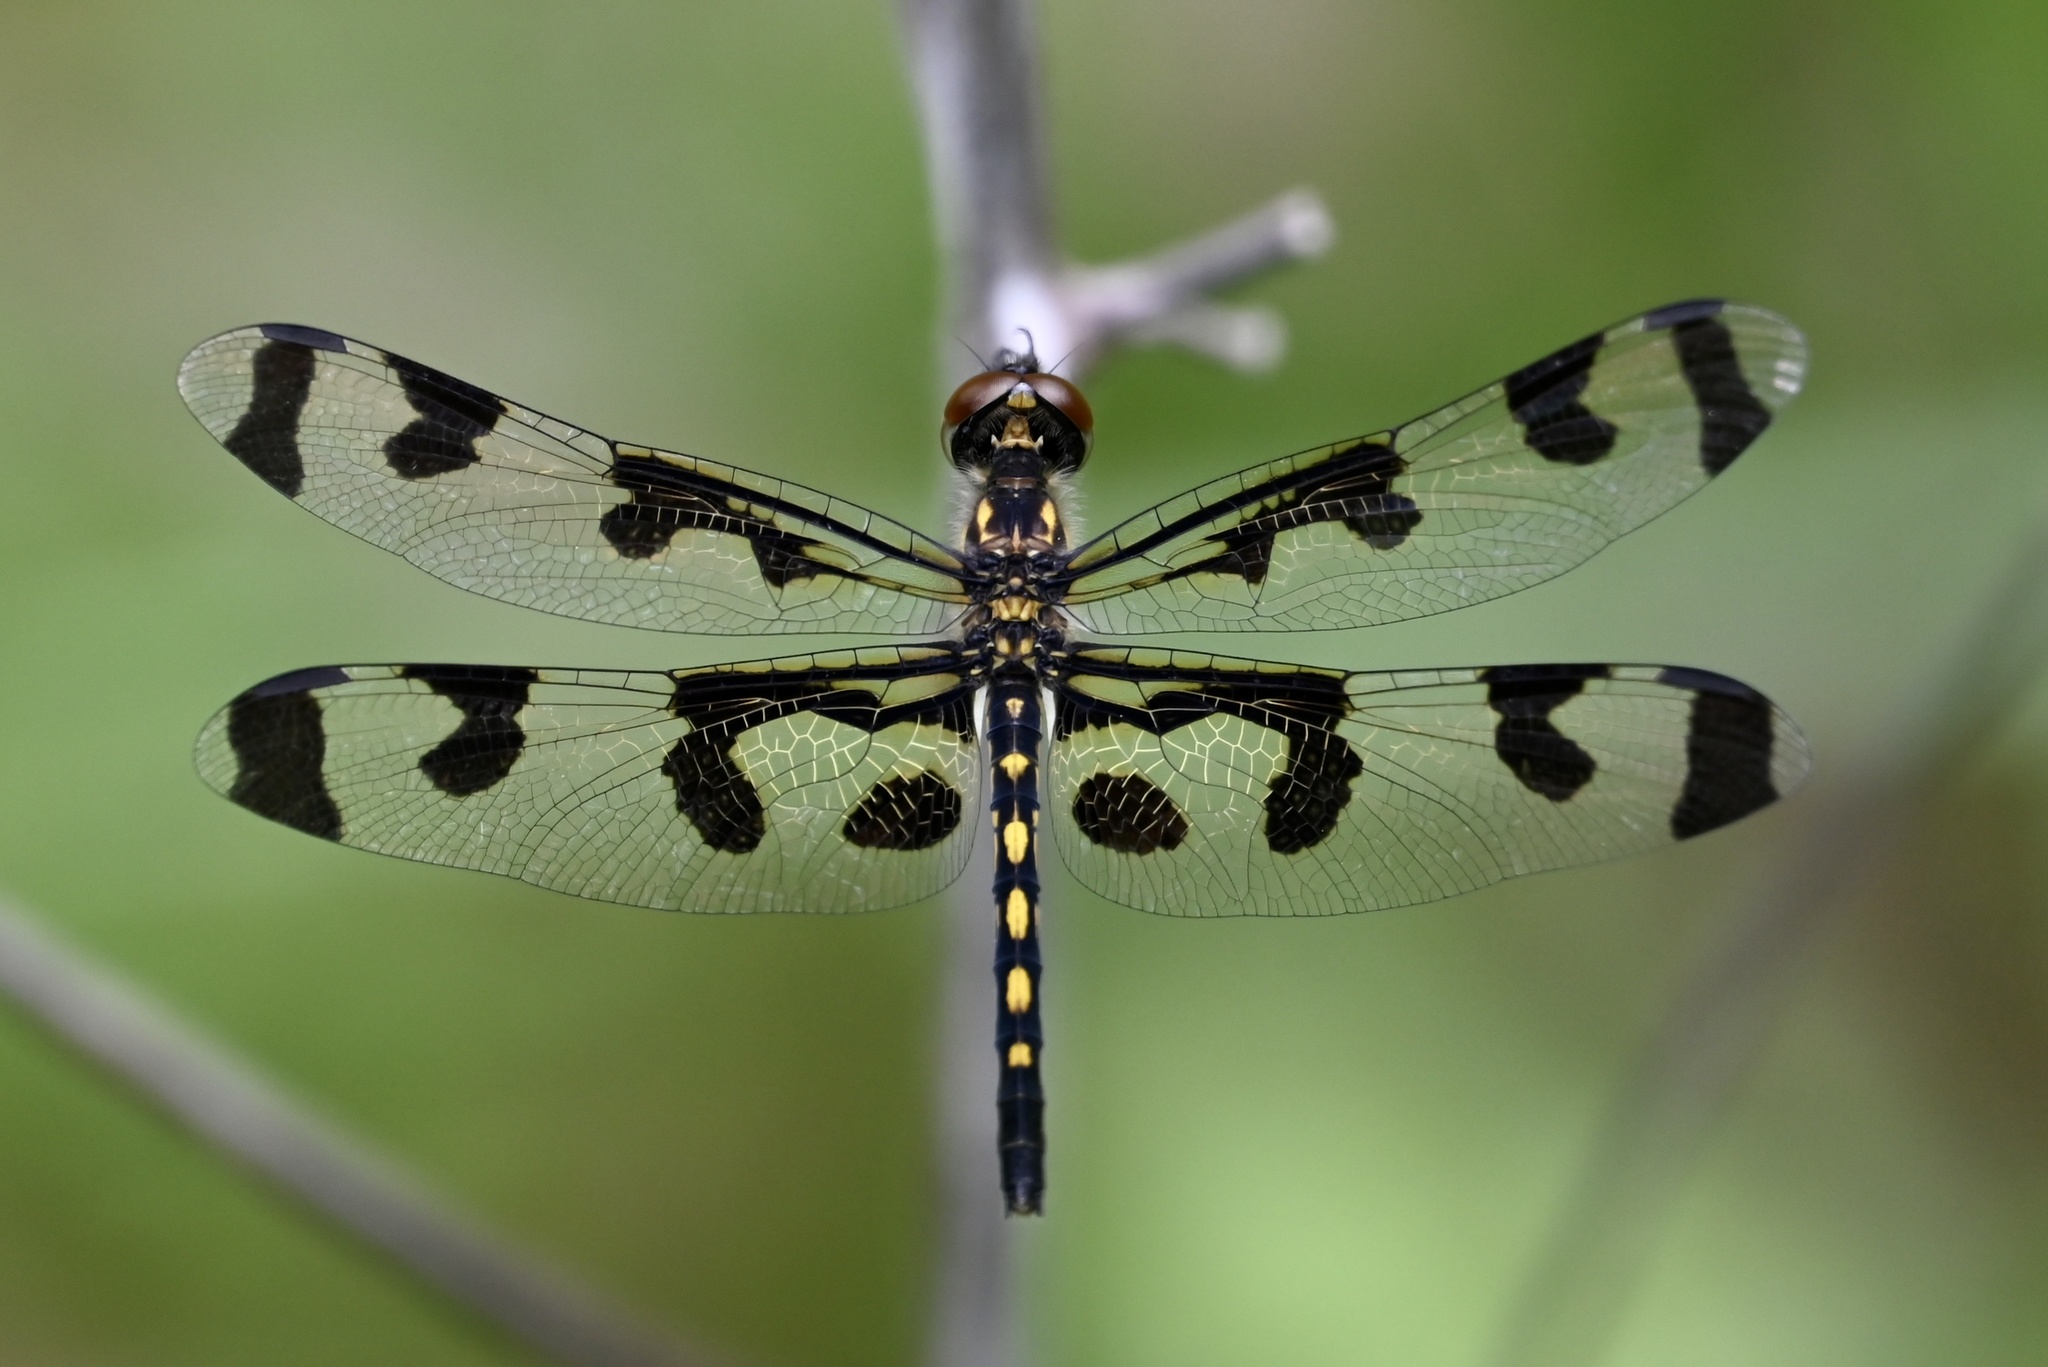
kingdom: Animalia
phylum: Arthropoda
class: Insecta
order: Odonata
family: Libellulidae
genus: Celithemis
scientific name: Celithemis fasciata
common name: Banded pennant
